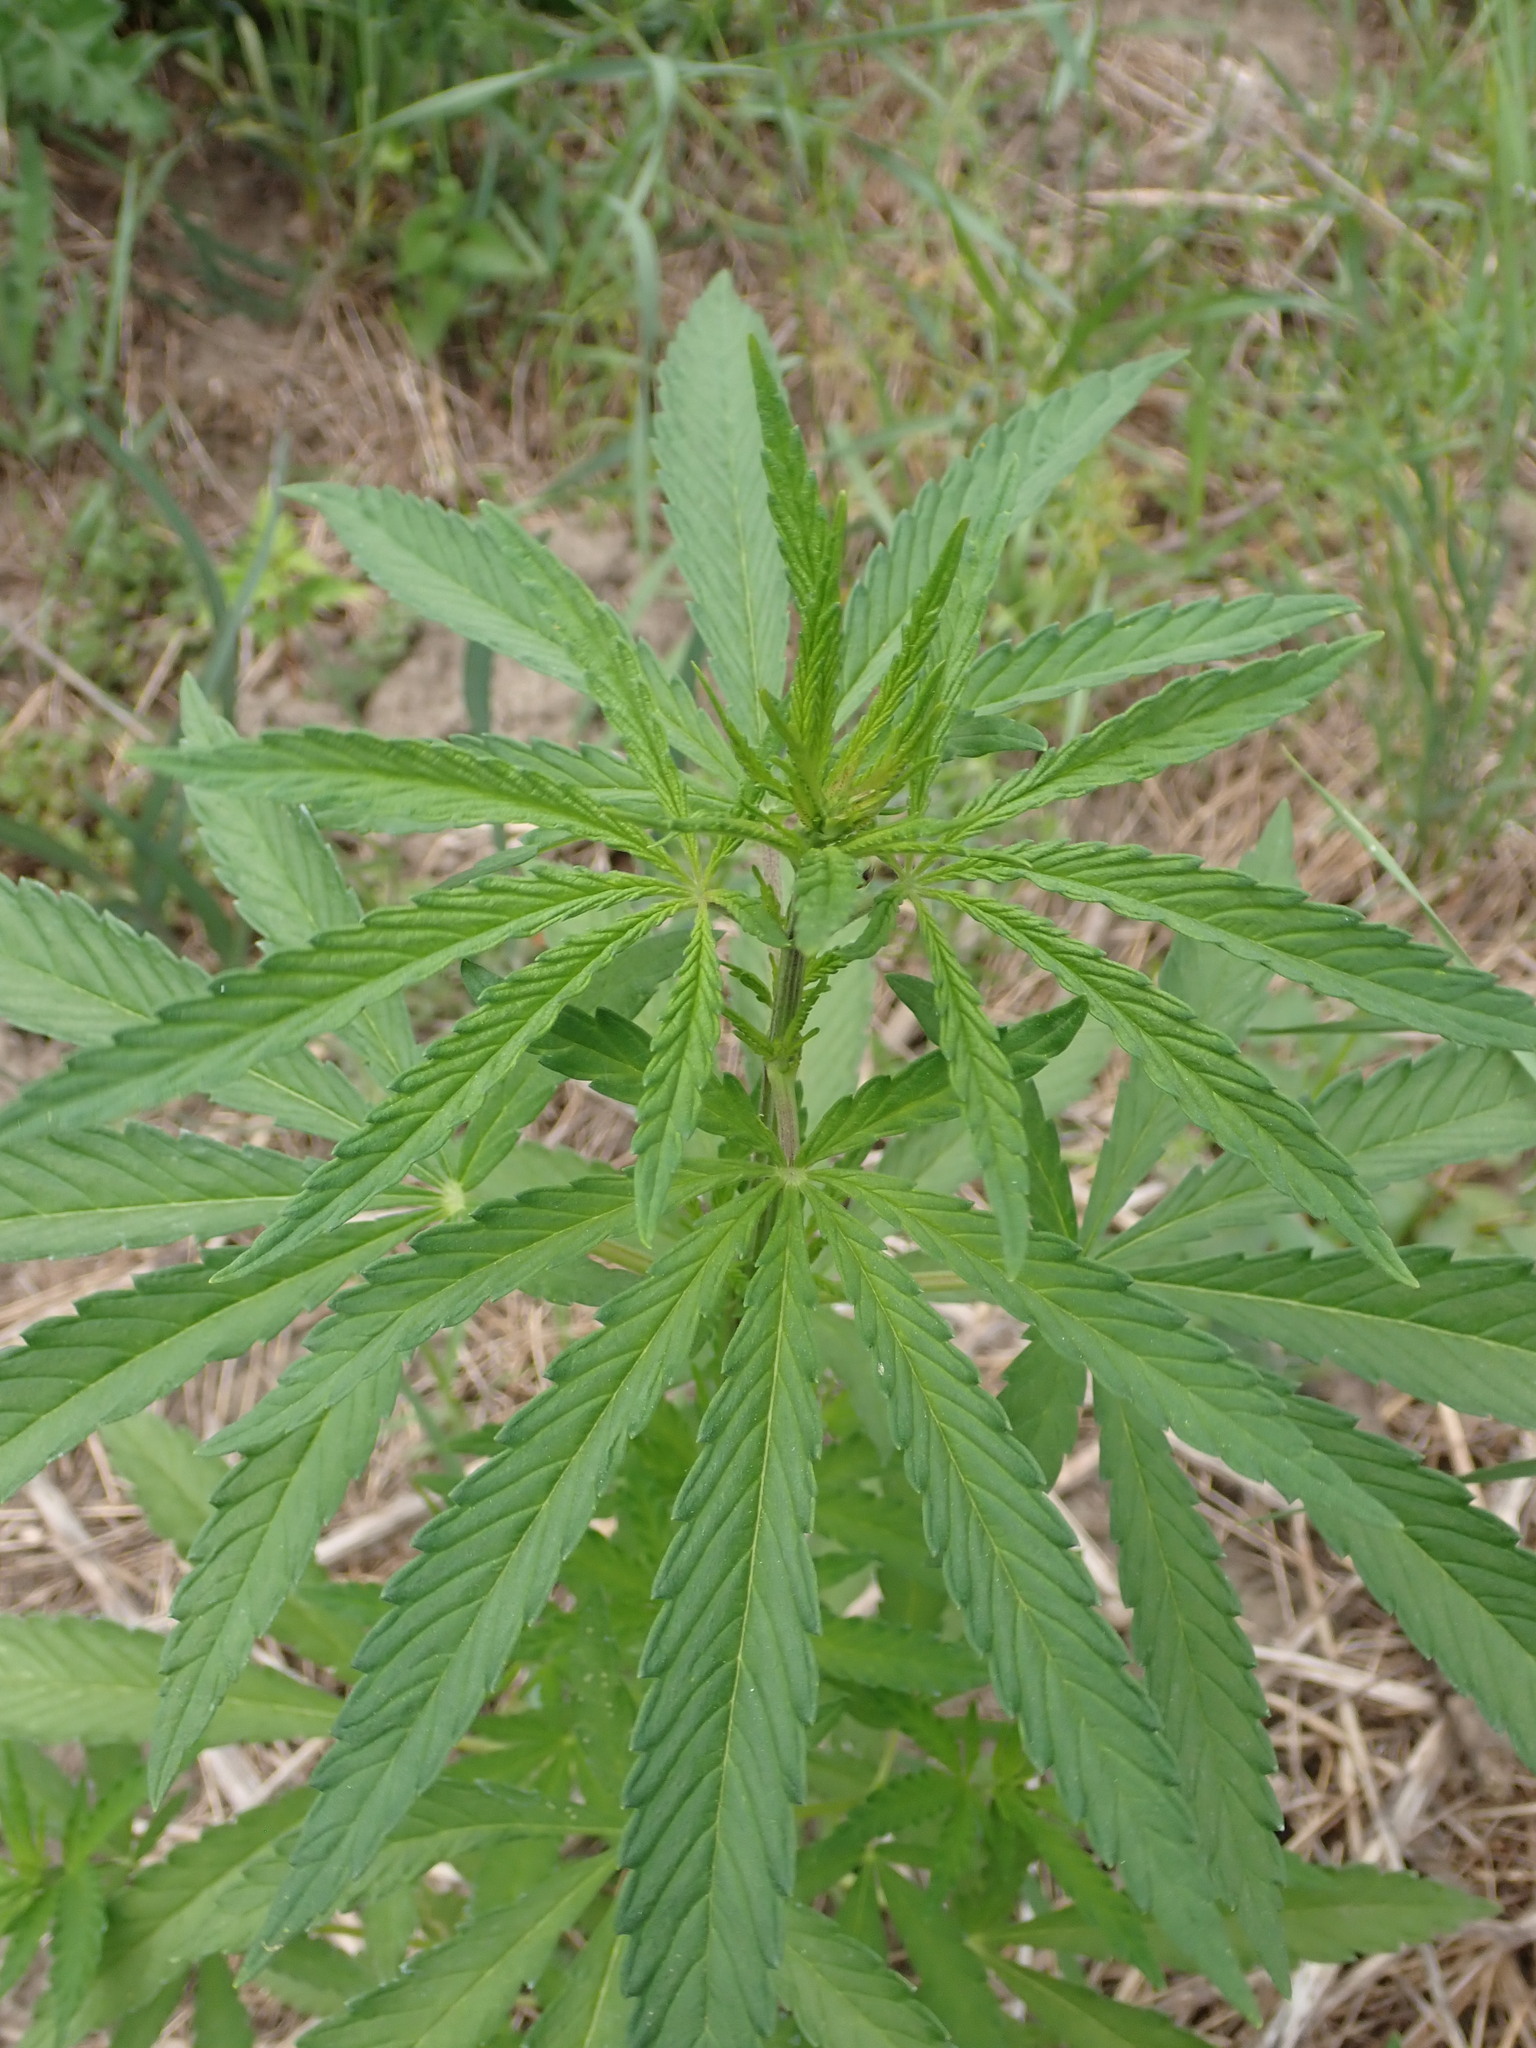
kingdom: Plantae
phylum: Tracheophyta
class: Magnoliopsida
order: Rosales
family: Cannabaceae
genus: Cannabis
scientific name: Cannabis sativa
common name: Hemp
